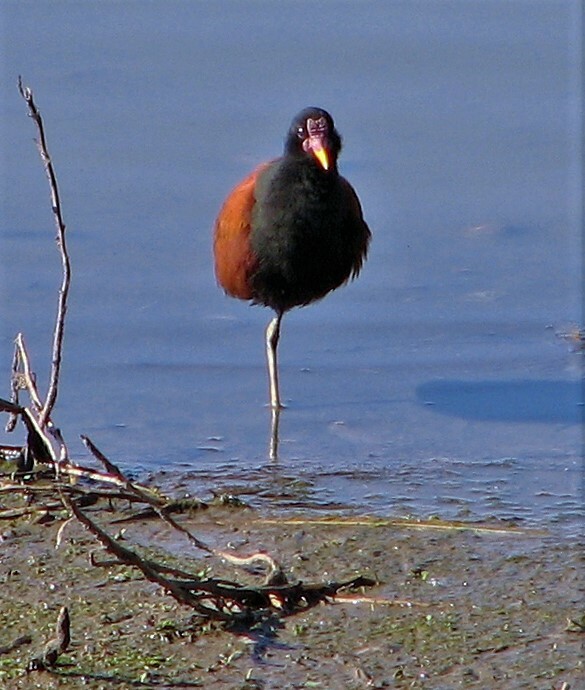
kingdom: Animalia
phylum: Chordata
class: Aves
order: Charadriiformes
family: Jacanidae
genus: Jacana
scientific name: Jacana jacana
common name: Wattled jacana
